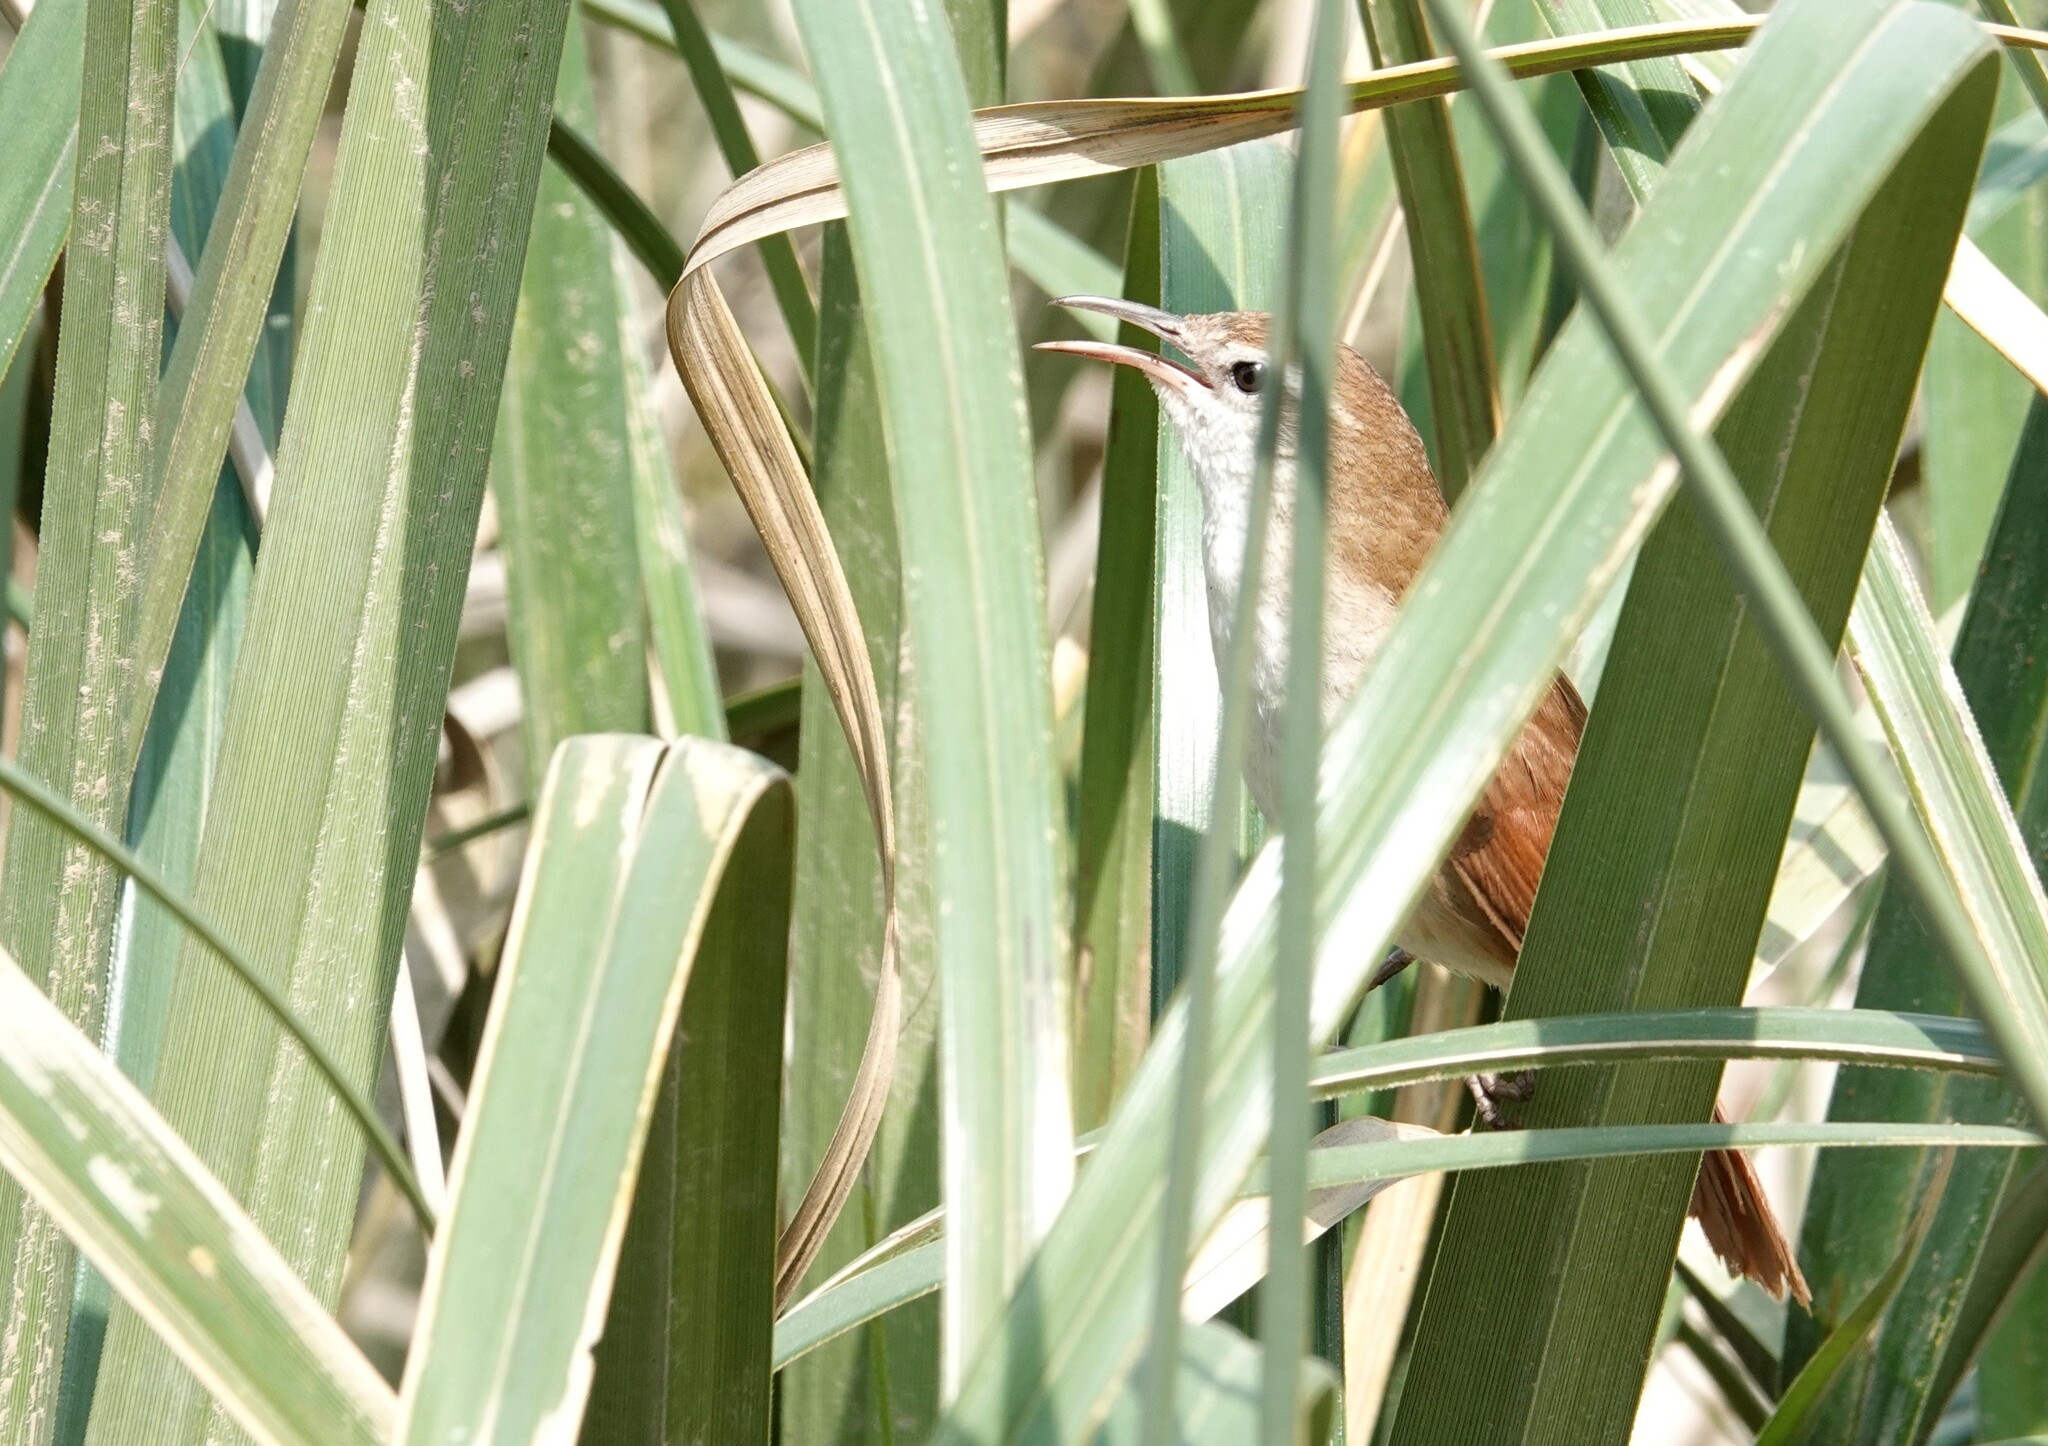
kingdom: Animalia
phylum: Chordata
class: Aves
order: Passeriformes
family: Furnariidae
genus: Limnornis
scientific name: Limnornis curvirostris
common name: Curve-billed reedhaunter
